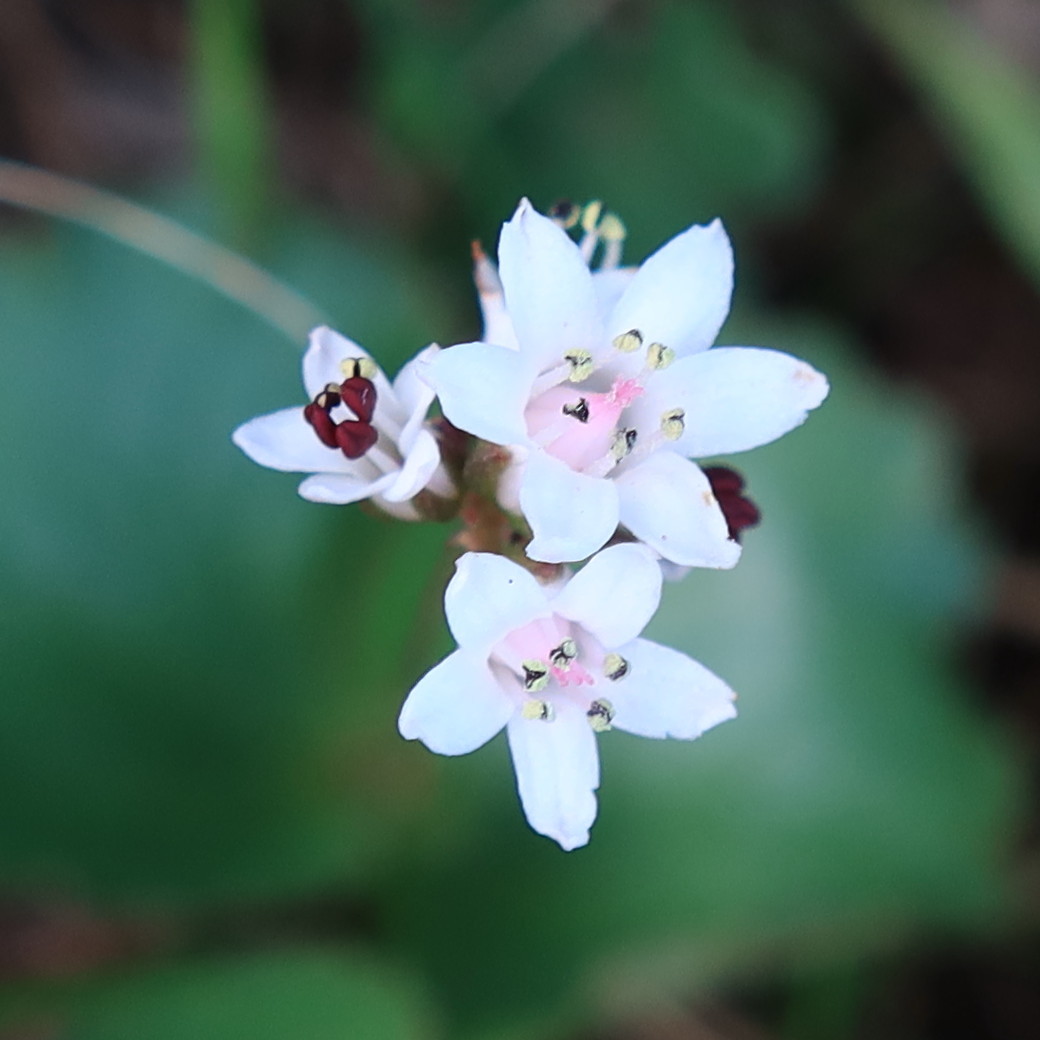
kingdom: Plantae
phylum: Tracheophyta
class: Magnoliopsida
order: Saxifragales
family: Crassulaceae
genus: Crassula
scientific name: Crassula saxifraga
